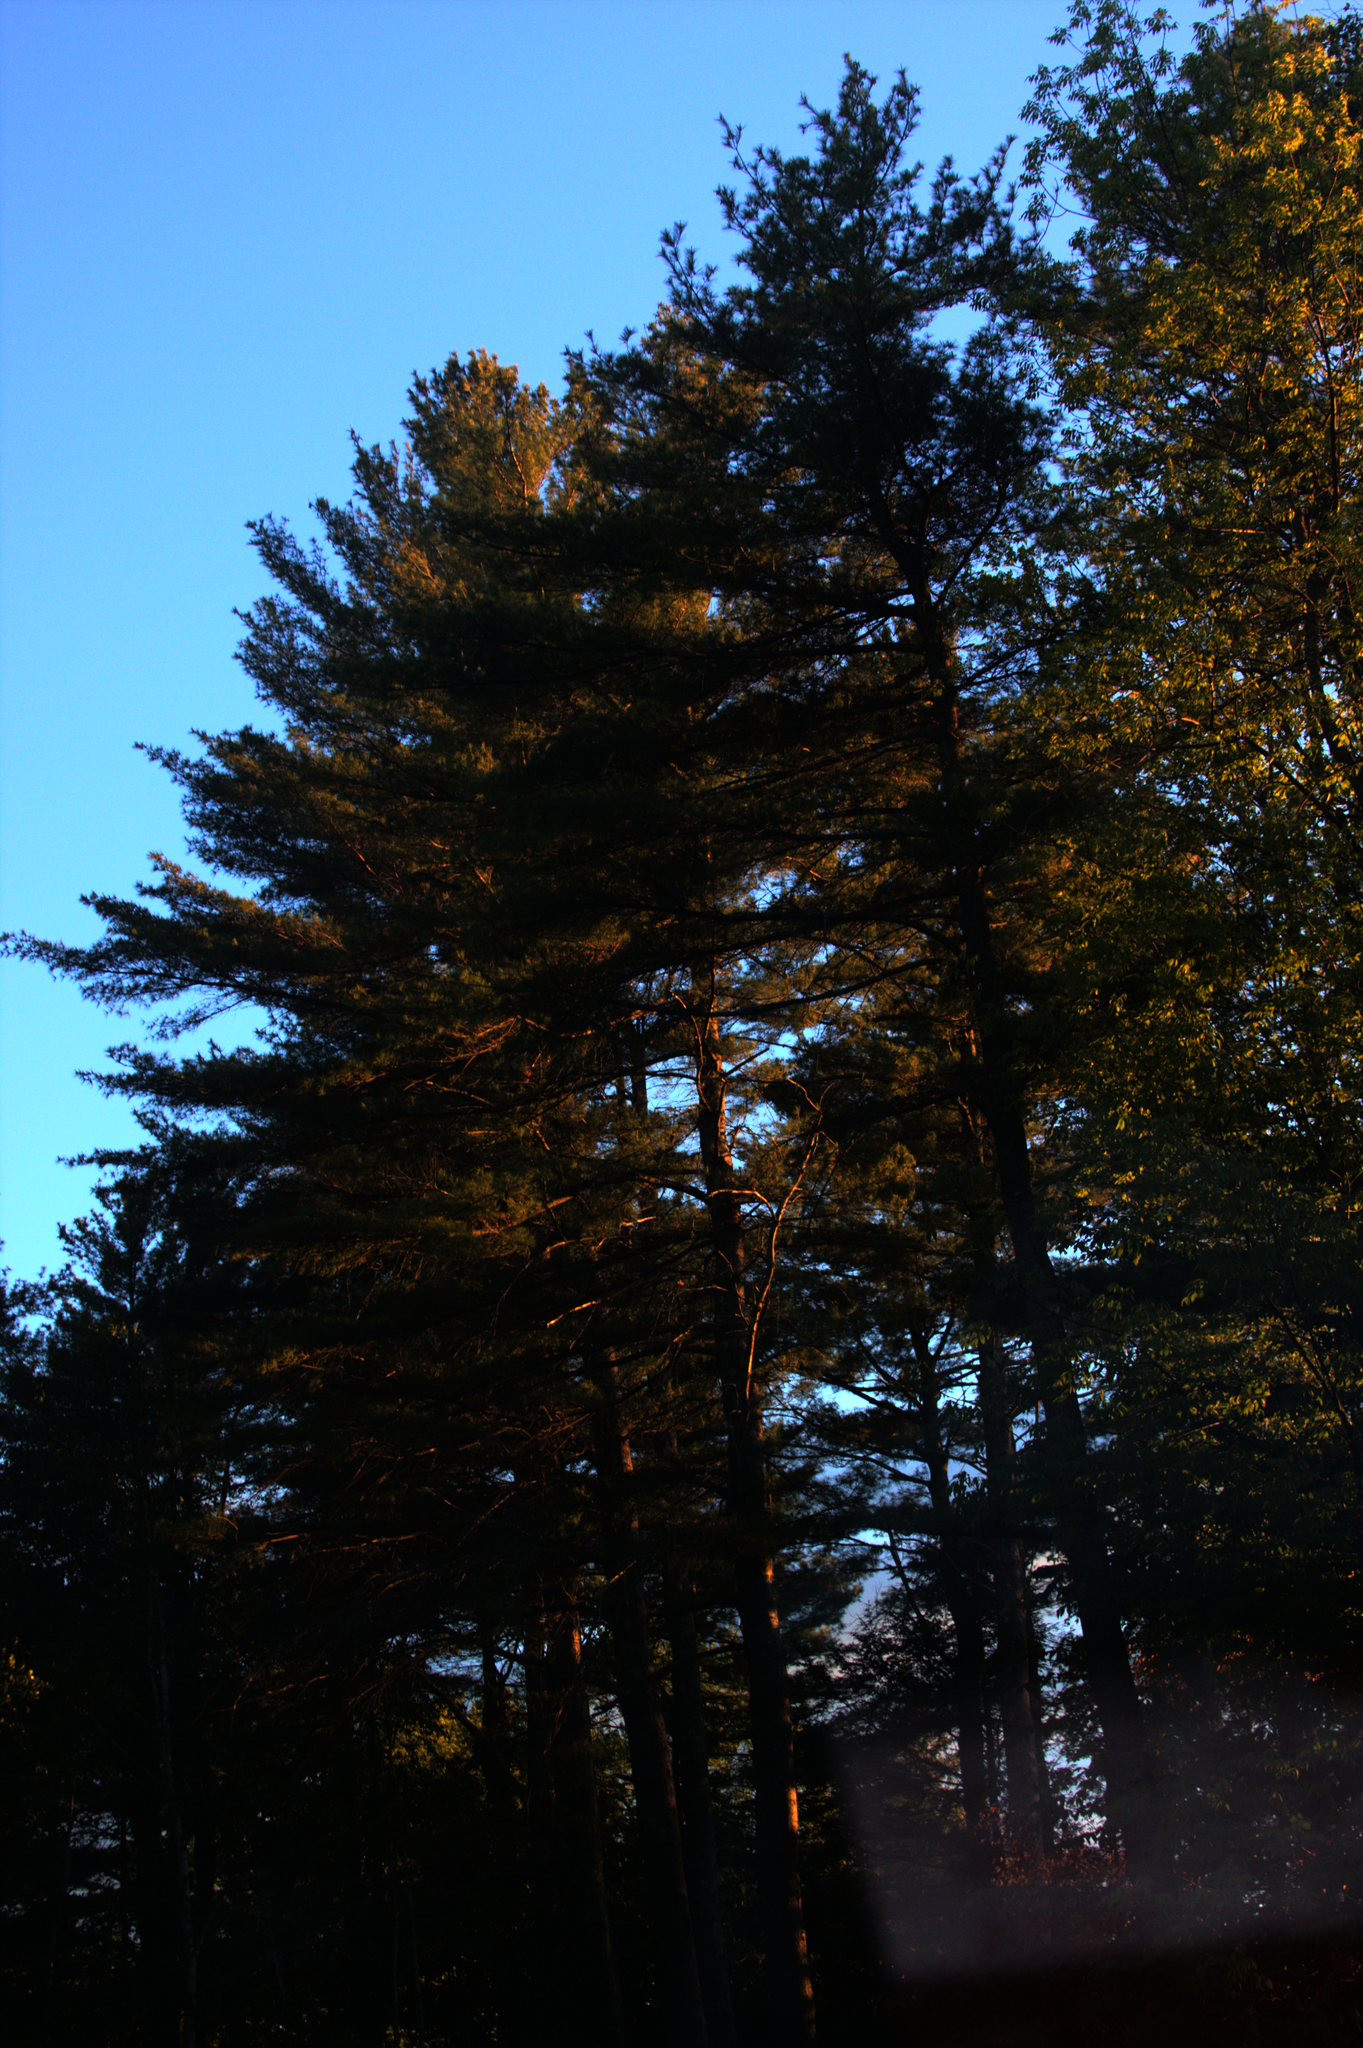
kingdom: Plantae
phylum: Tracheophyta
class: Pinopsida
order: Pinales
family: Pinaceae
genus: Pinus
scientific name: Pinus strobus
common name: Weymouth pine
